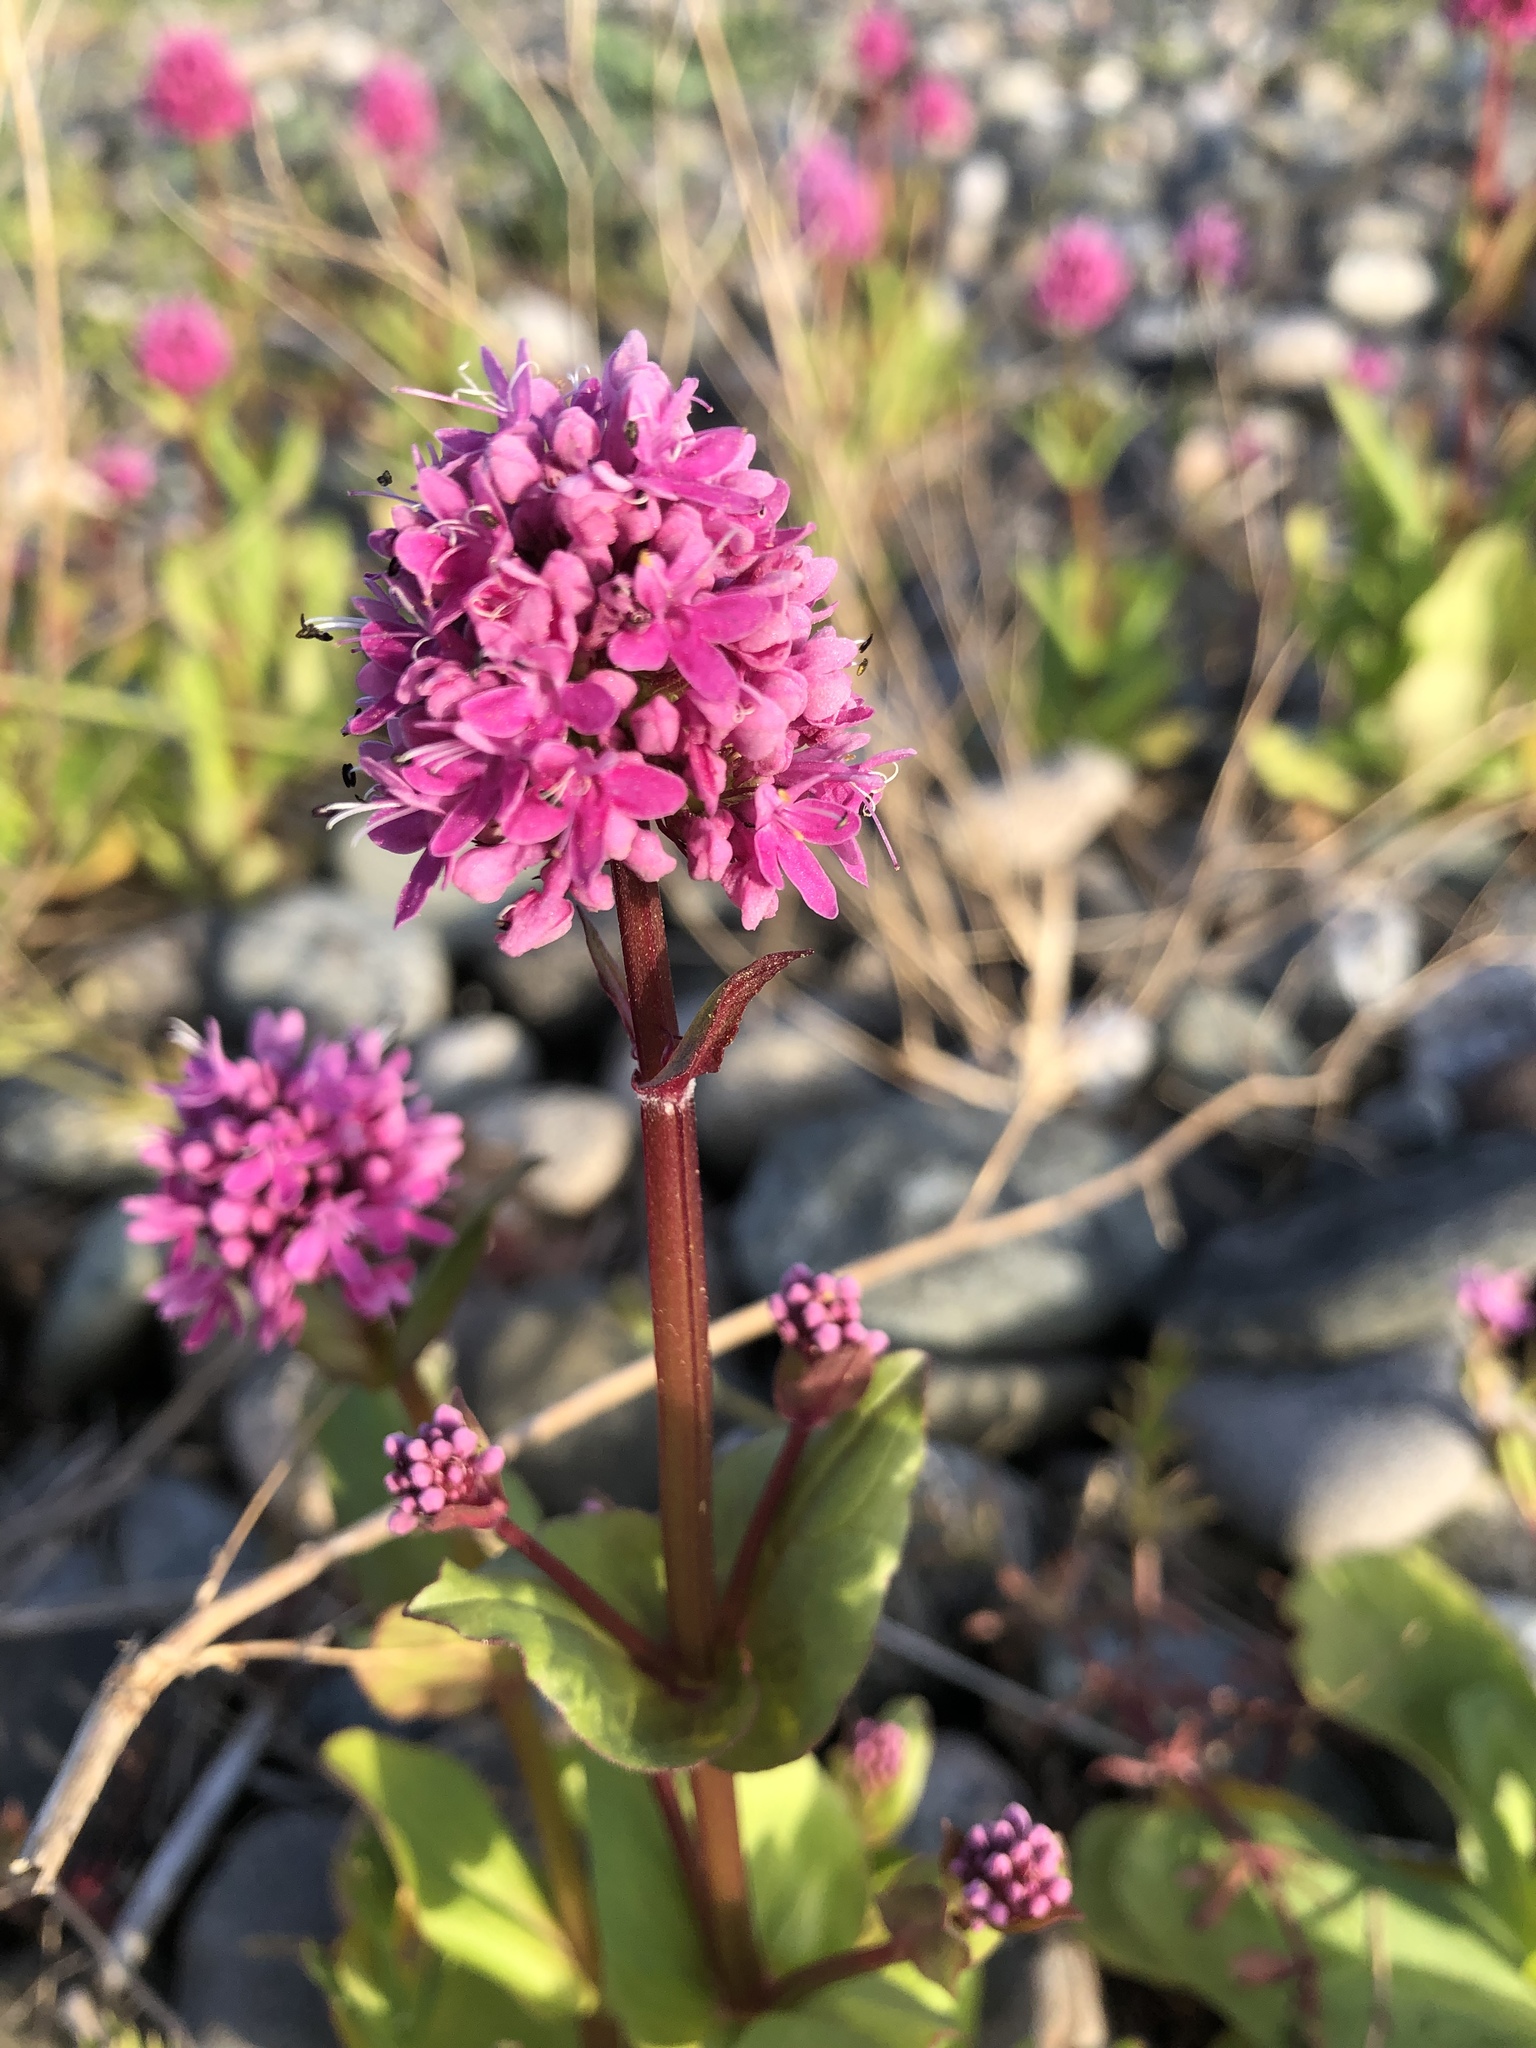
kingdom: Plantae
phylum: Tracheophyta
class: Magnoliopsida
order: Dipsacales
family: Caprifoliaceae
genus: Plectritis
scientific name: Plectritis congesta
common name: Pink plectritis
